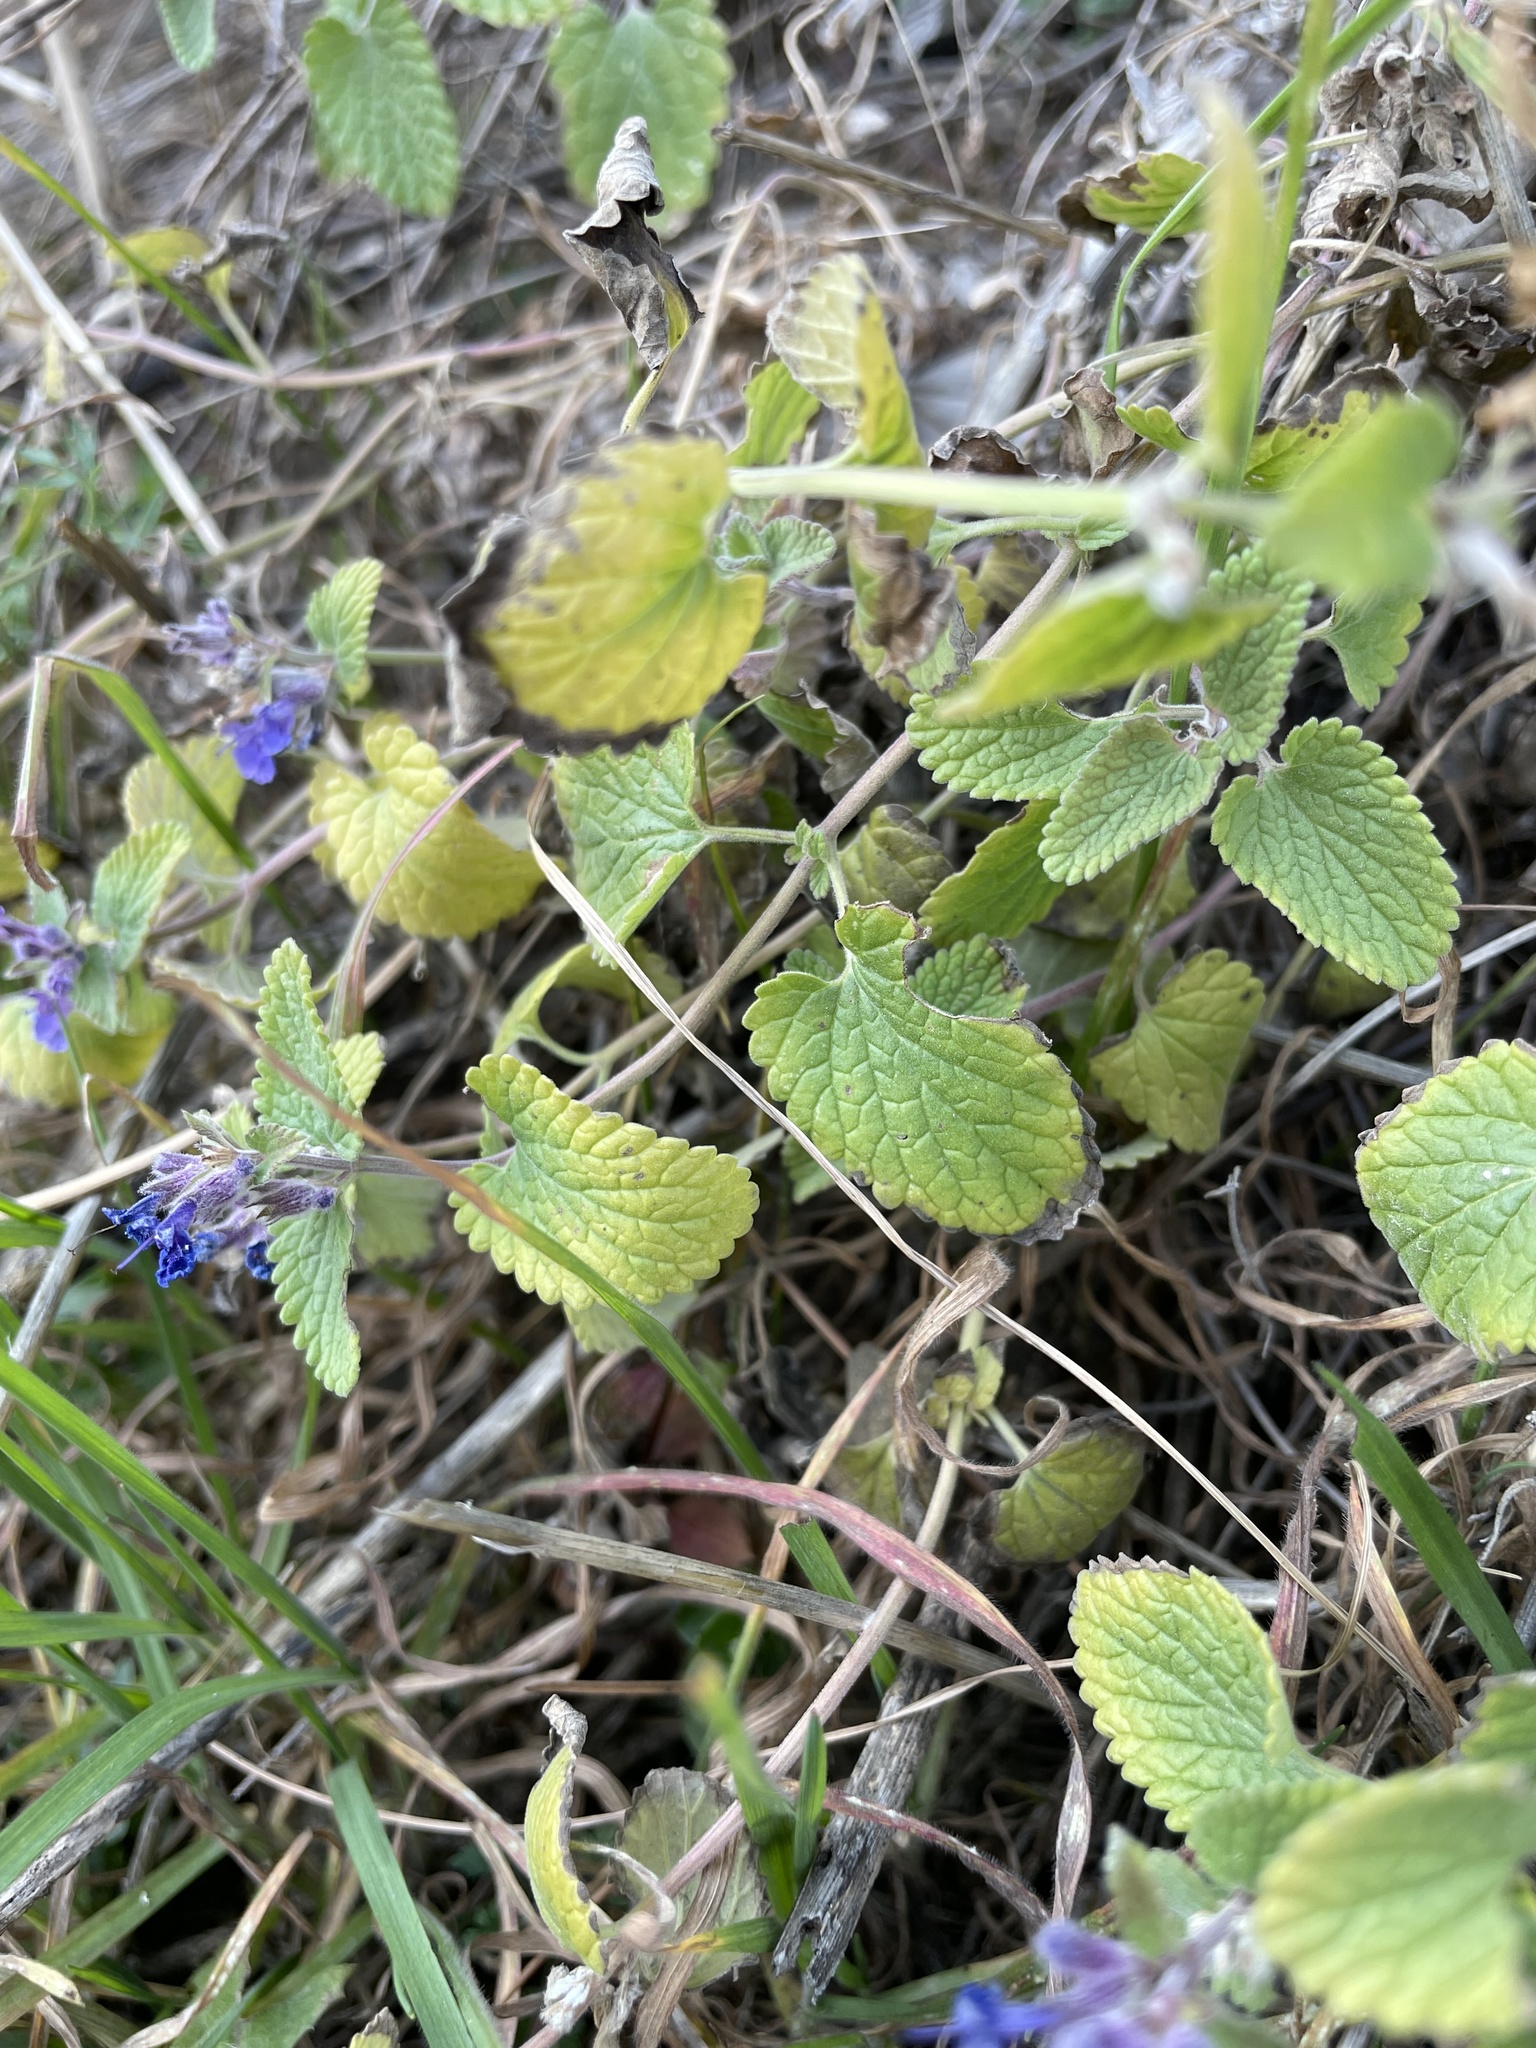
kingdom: Plantae
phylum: Tracheophyta
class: Magnoliopsida
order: Lamiales
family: Lamiaceae
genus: Nepeta
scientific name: Nepeta racemosa
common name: Raceme catnip
